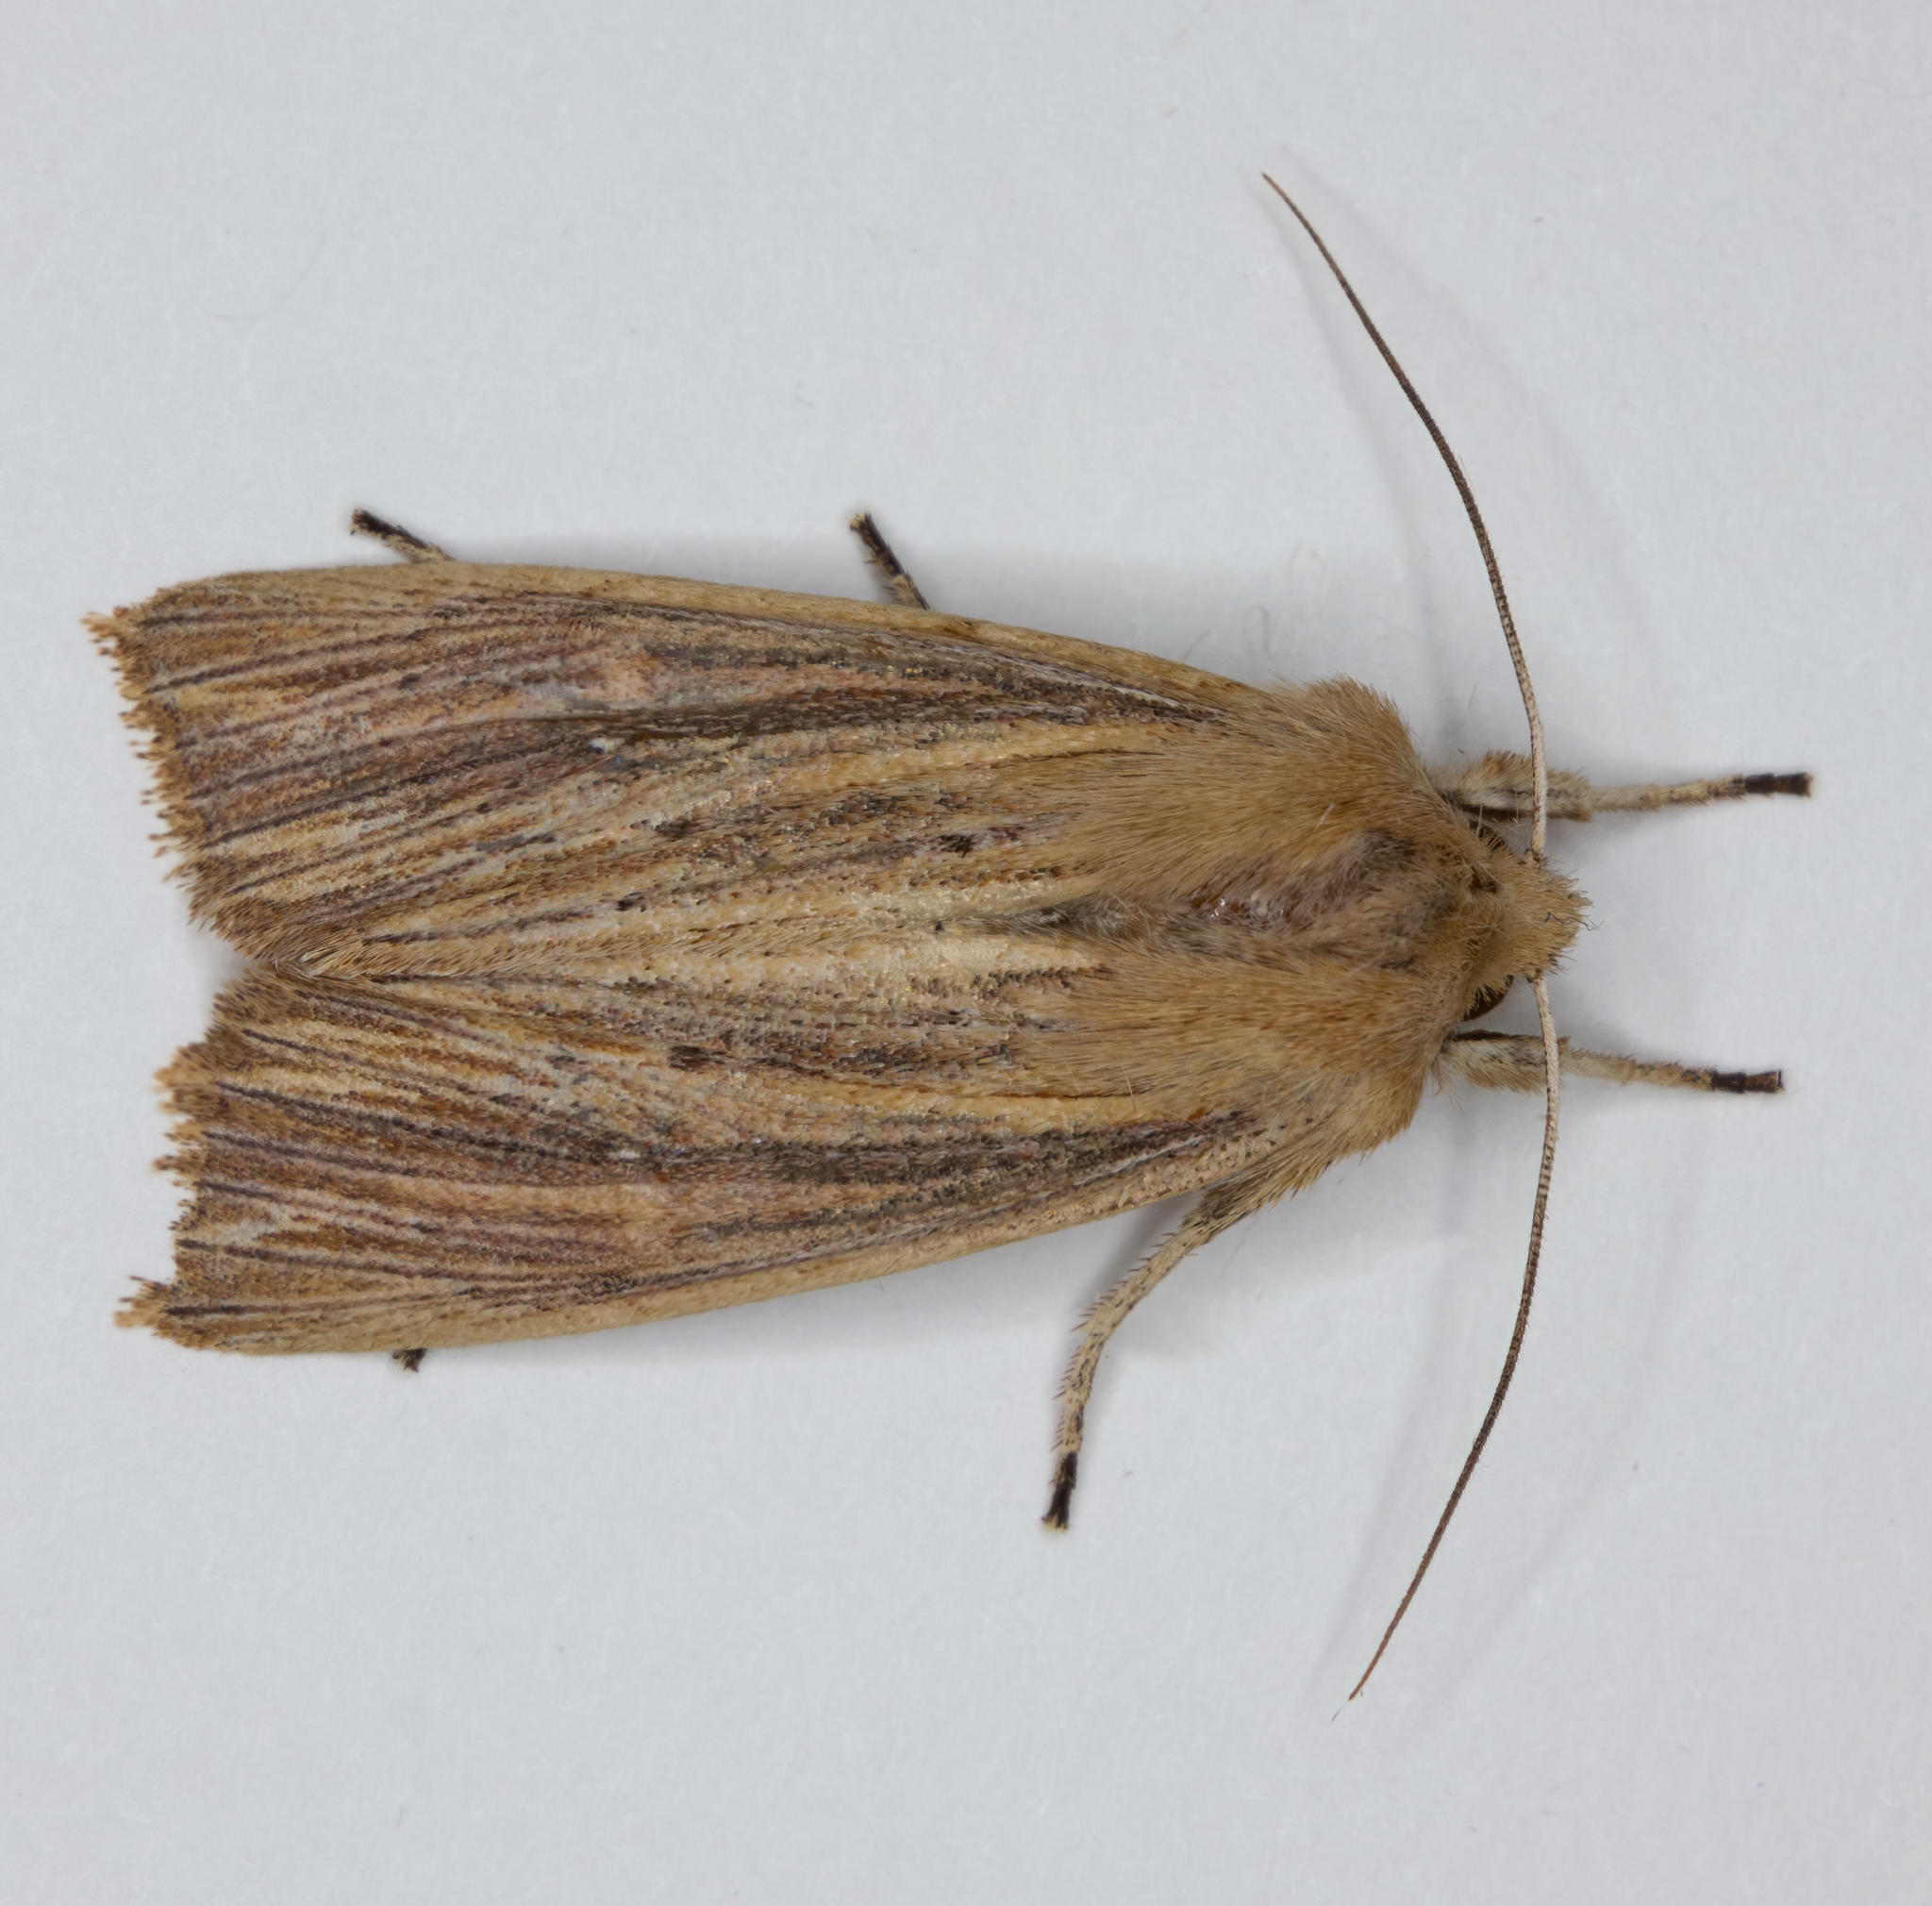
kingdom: Animalia
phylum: Arthropoda
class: Insecta
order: Lepidoptera
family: Noctuidae
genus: Ichneutica
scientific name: Ichneutica arotis
